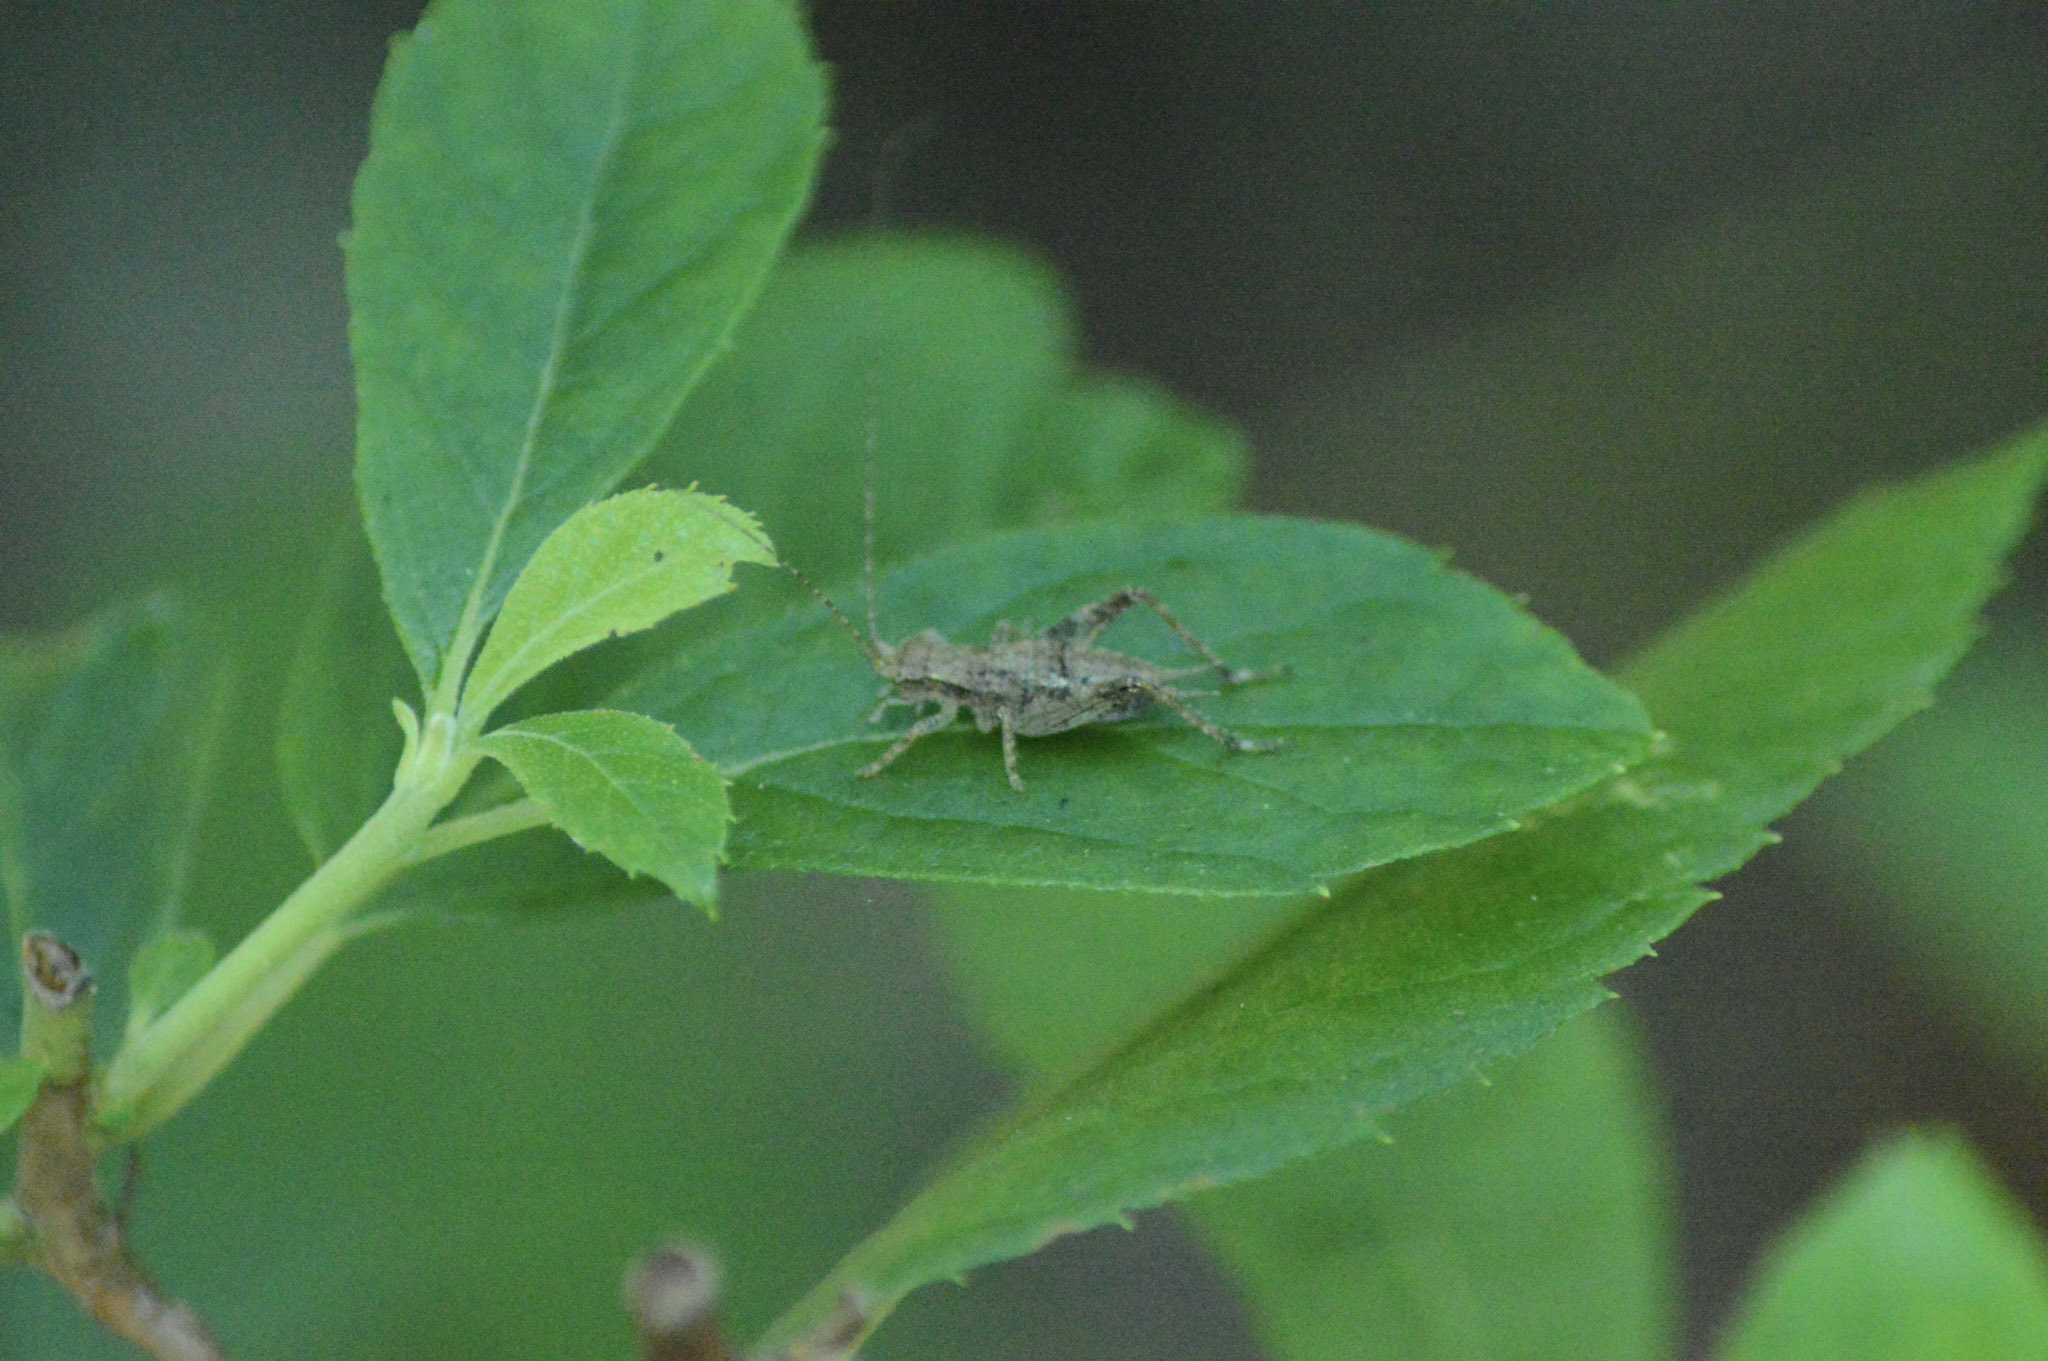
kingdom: Animalia
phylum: Arthropoda
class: Insecta
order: Orthoptera
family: Gryllidae
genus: Hapithus
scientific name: Hapithus saltator
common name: Jumping bush cricket
